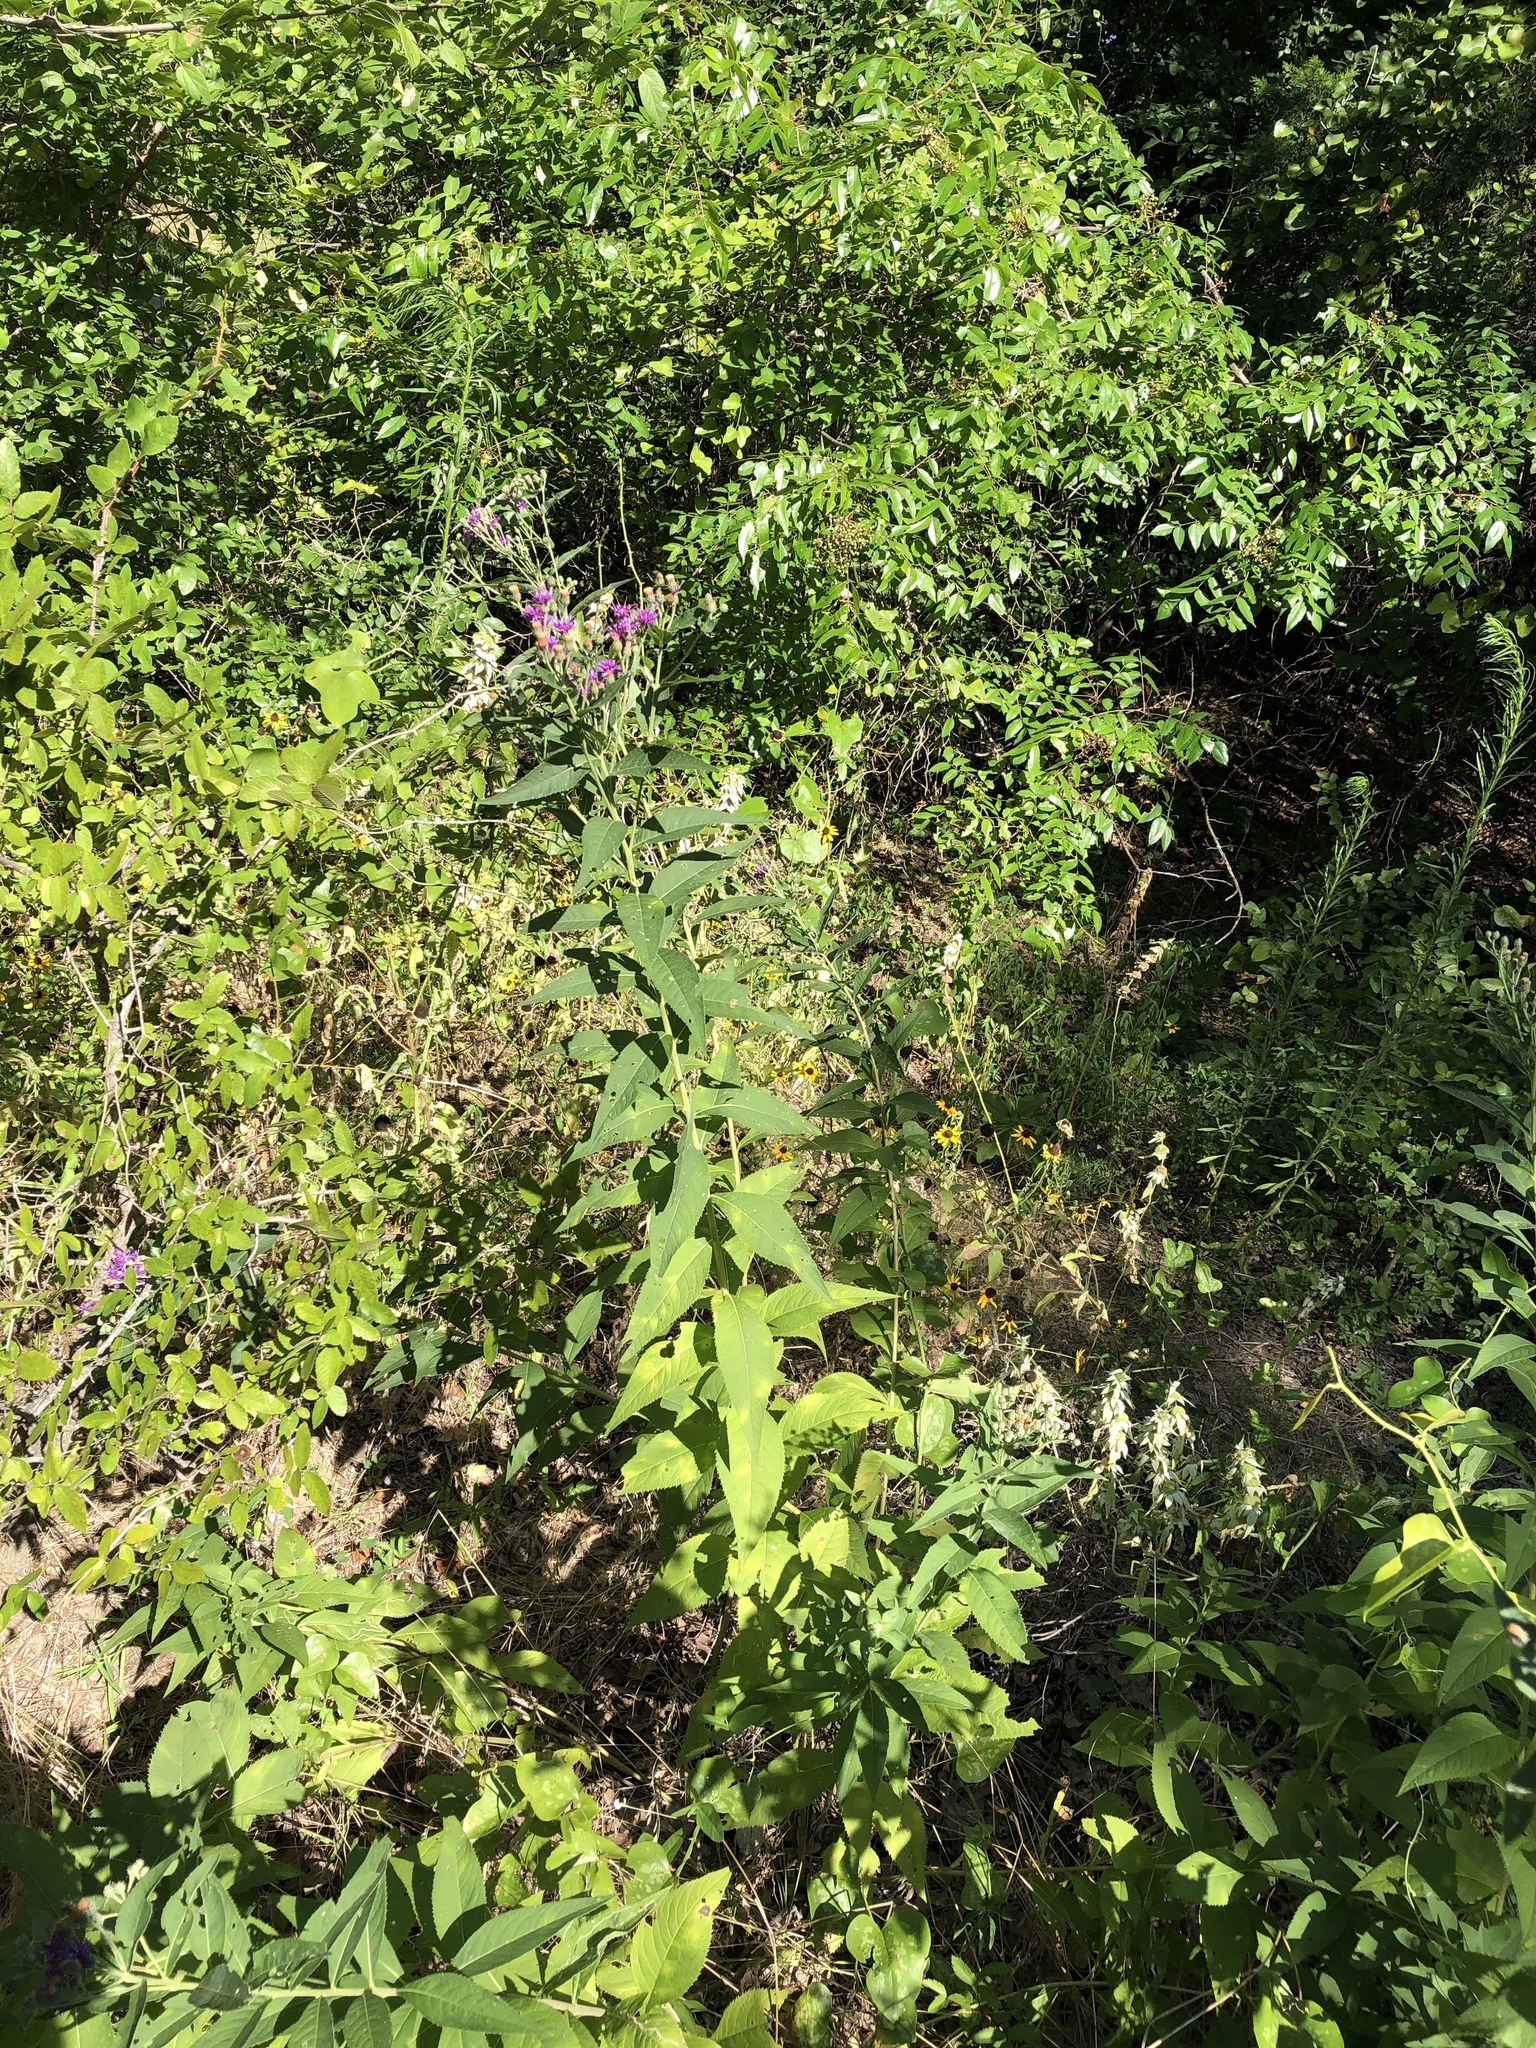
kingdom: Plantae
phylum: Tracheophyta
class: Magnoliopsida
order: Asterales
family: Asteraceae
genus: Vernonia
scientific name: Vernonia baldwinii
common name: Western ironweed
